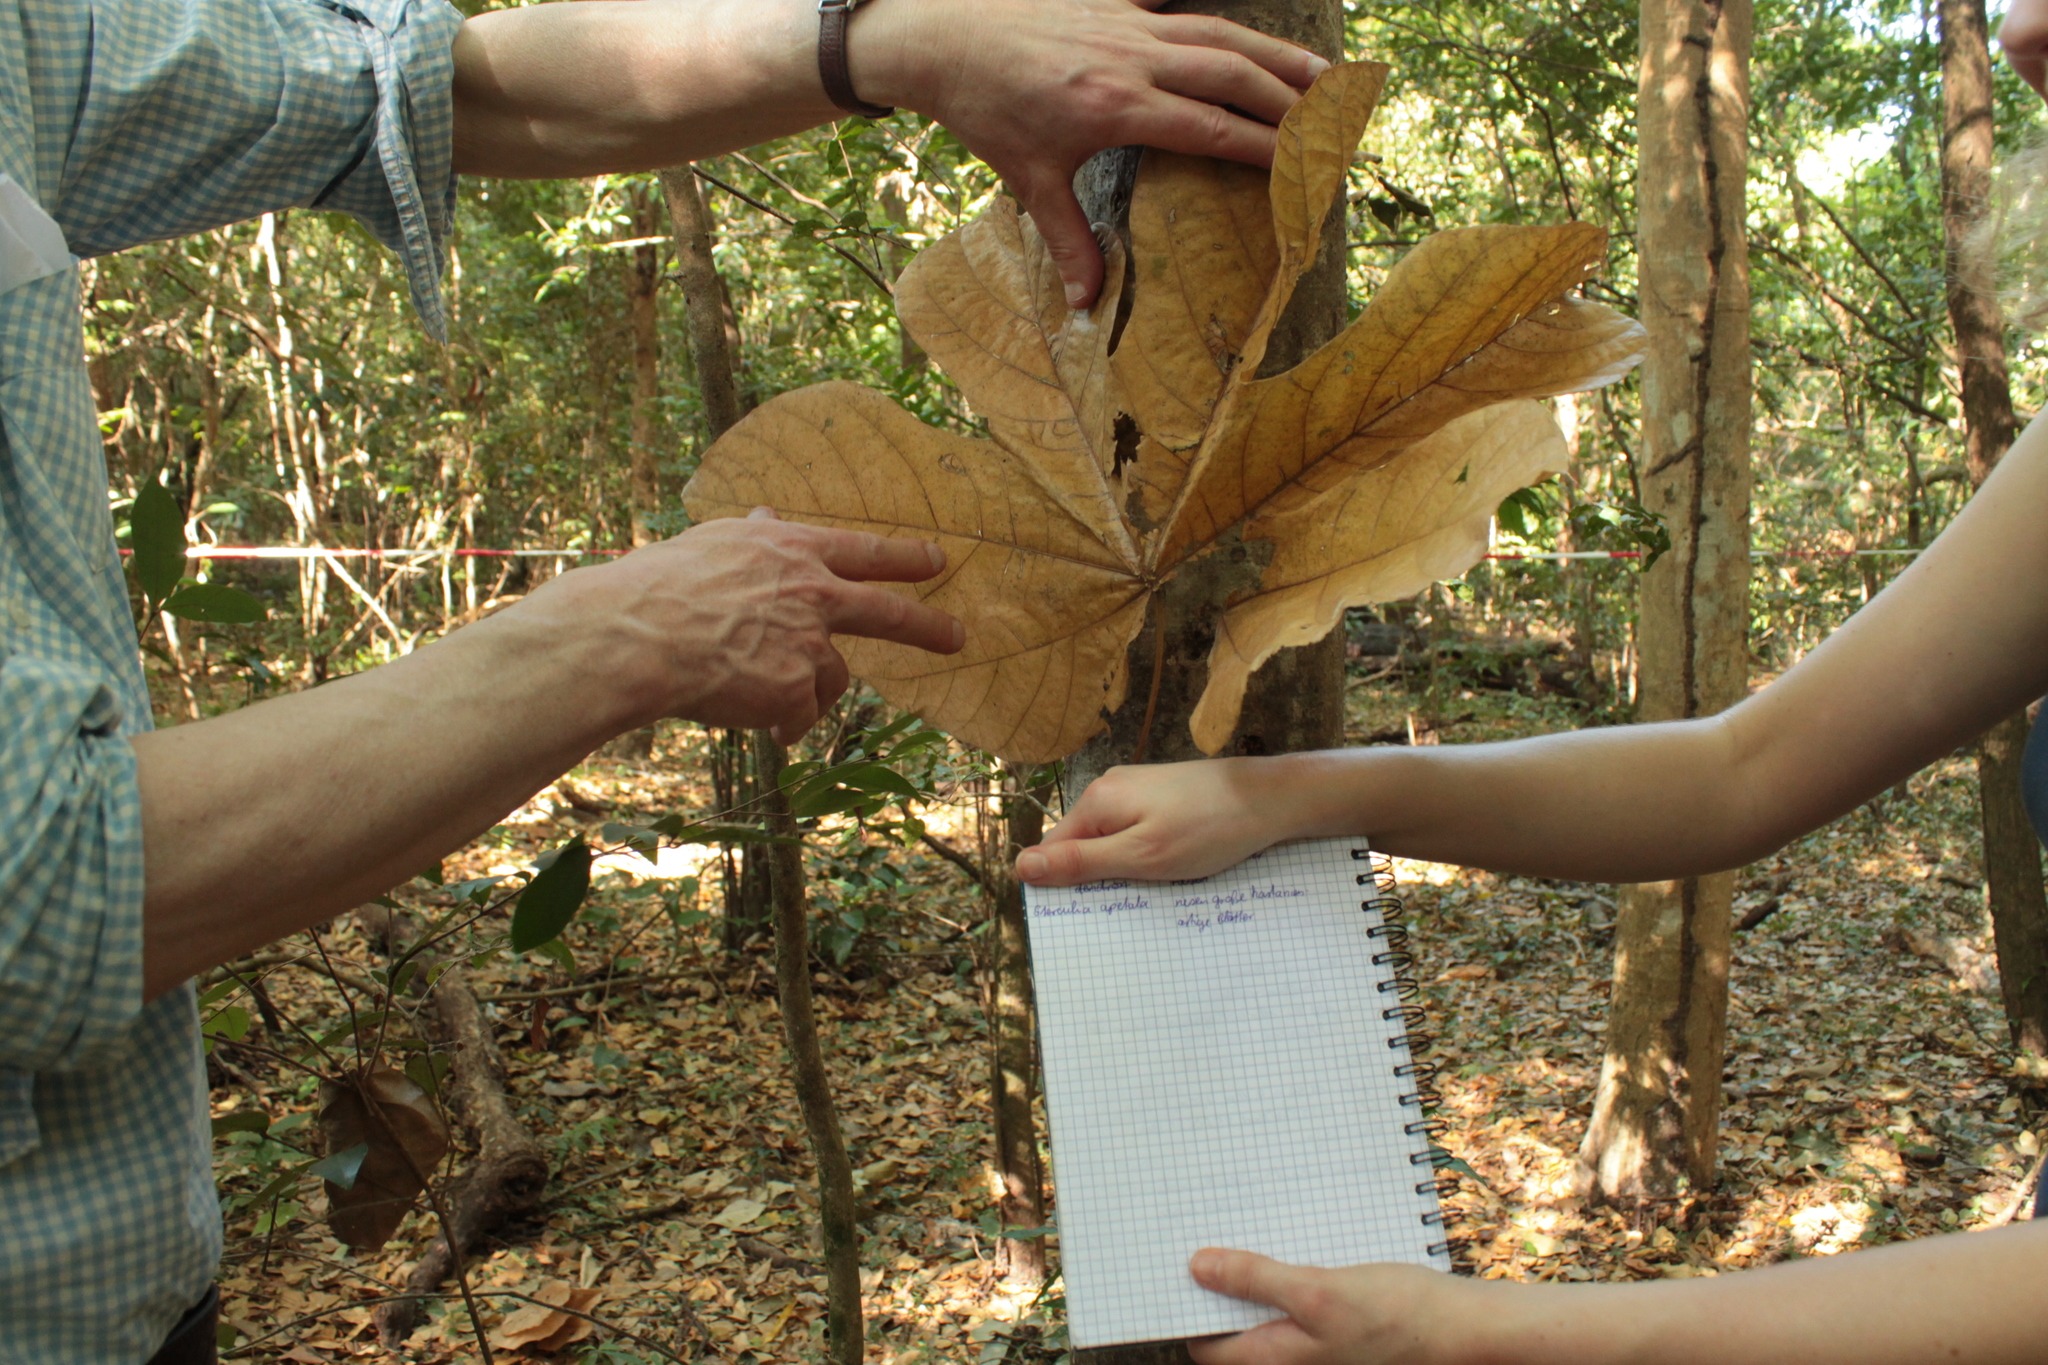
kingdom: Plantae
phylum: Tracheophyta
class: Magnoliopsida
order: Malvales
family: Malvaceae
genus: Sterculia
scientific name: Sterculia apetala
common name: Panama tree
